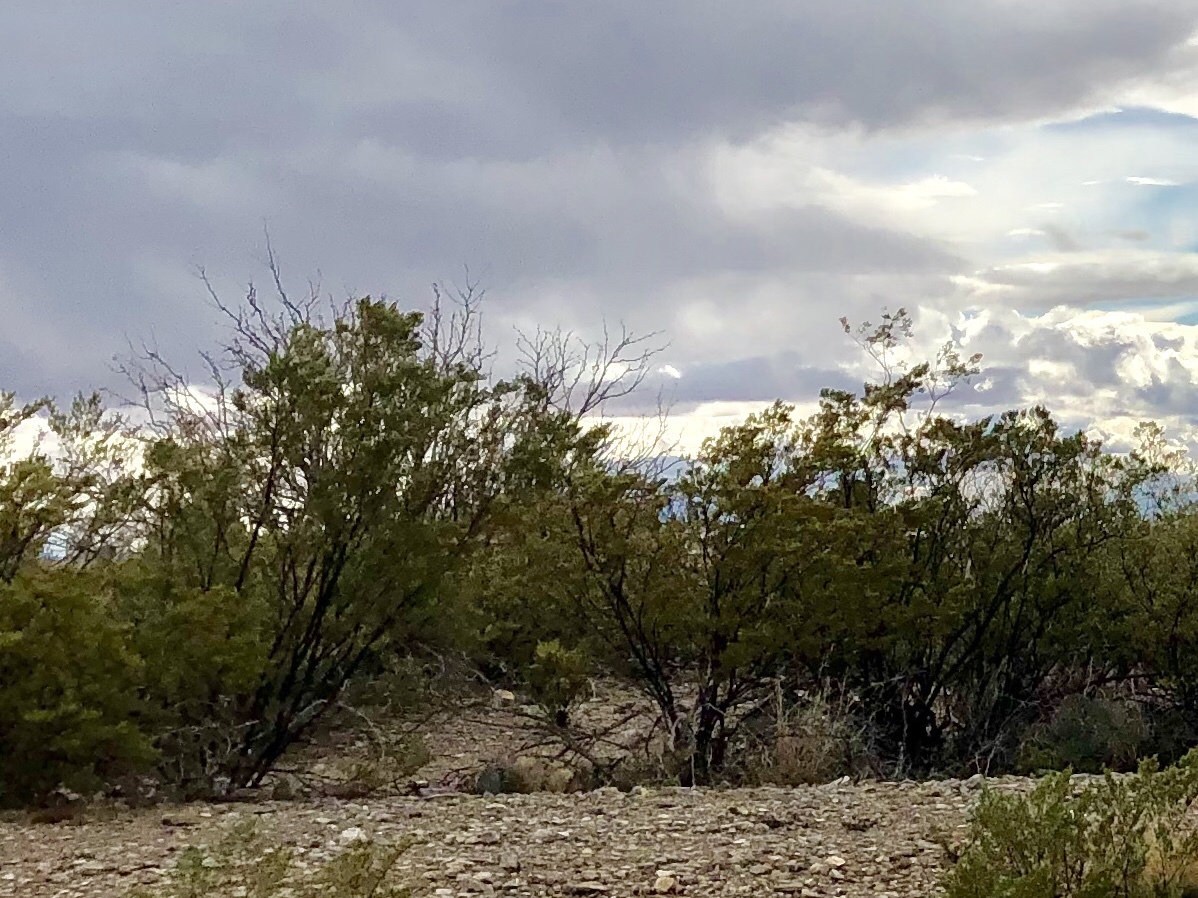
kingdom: Plantae
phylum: Tracheophyta
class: Magnoliopsida
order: Zygophyllales
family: Zygophyllaceae
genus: Larrea
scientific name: Larrea tridentata
